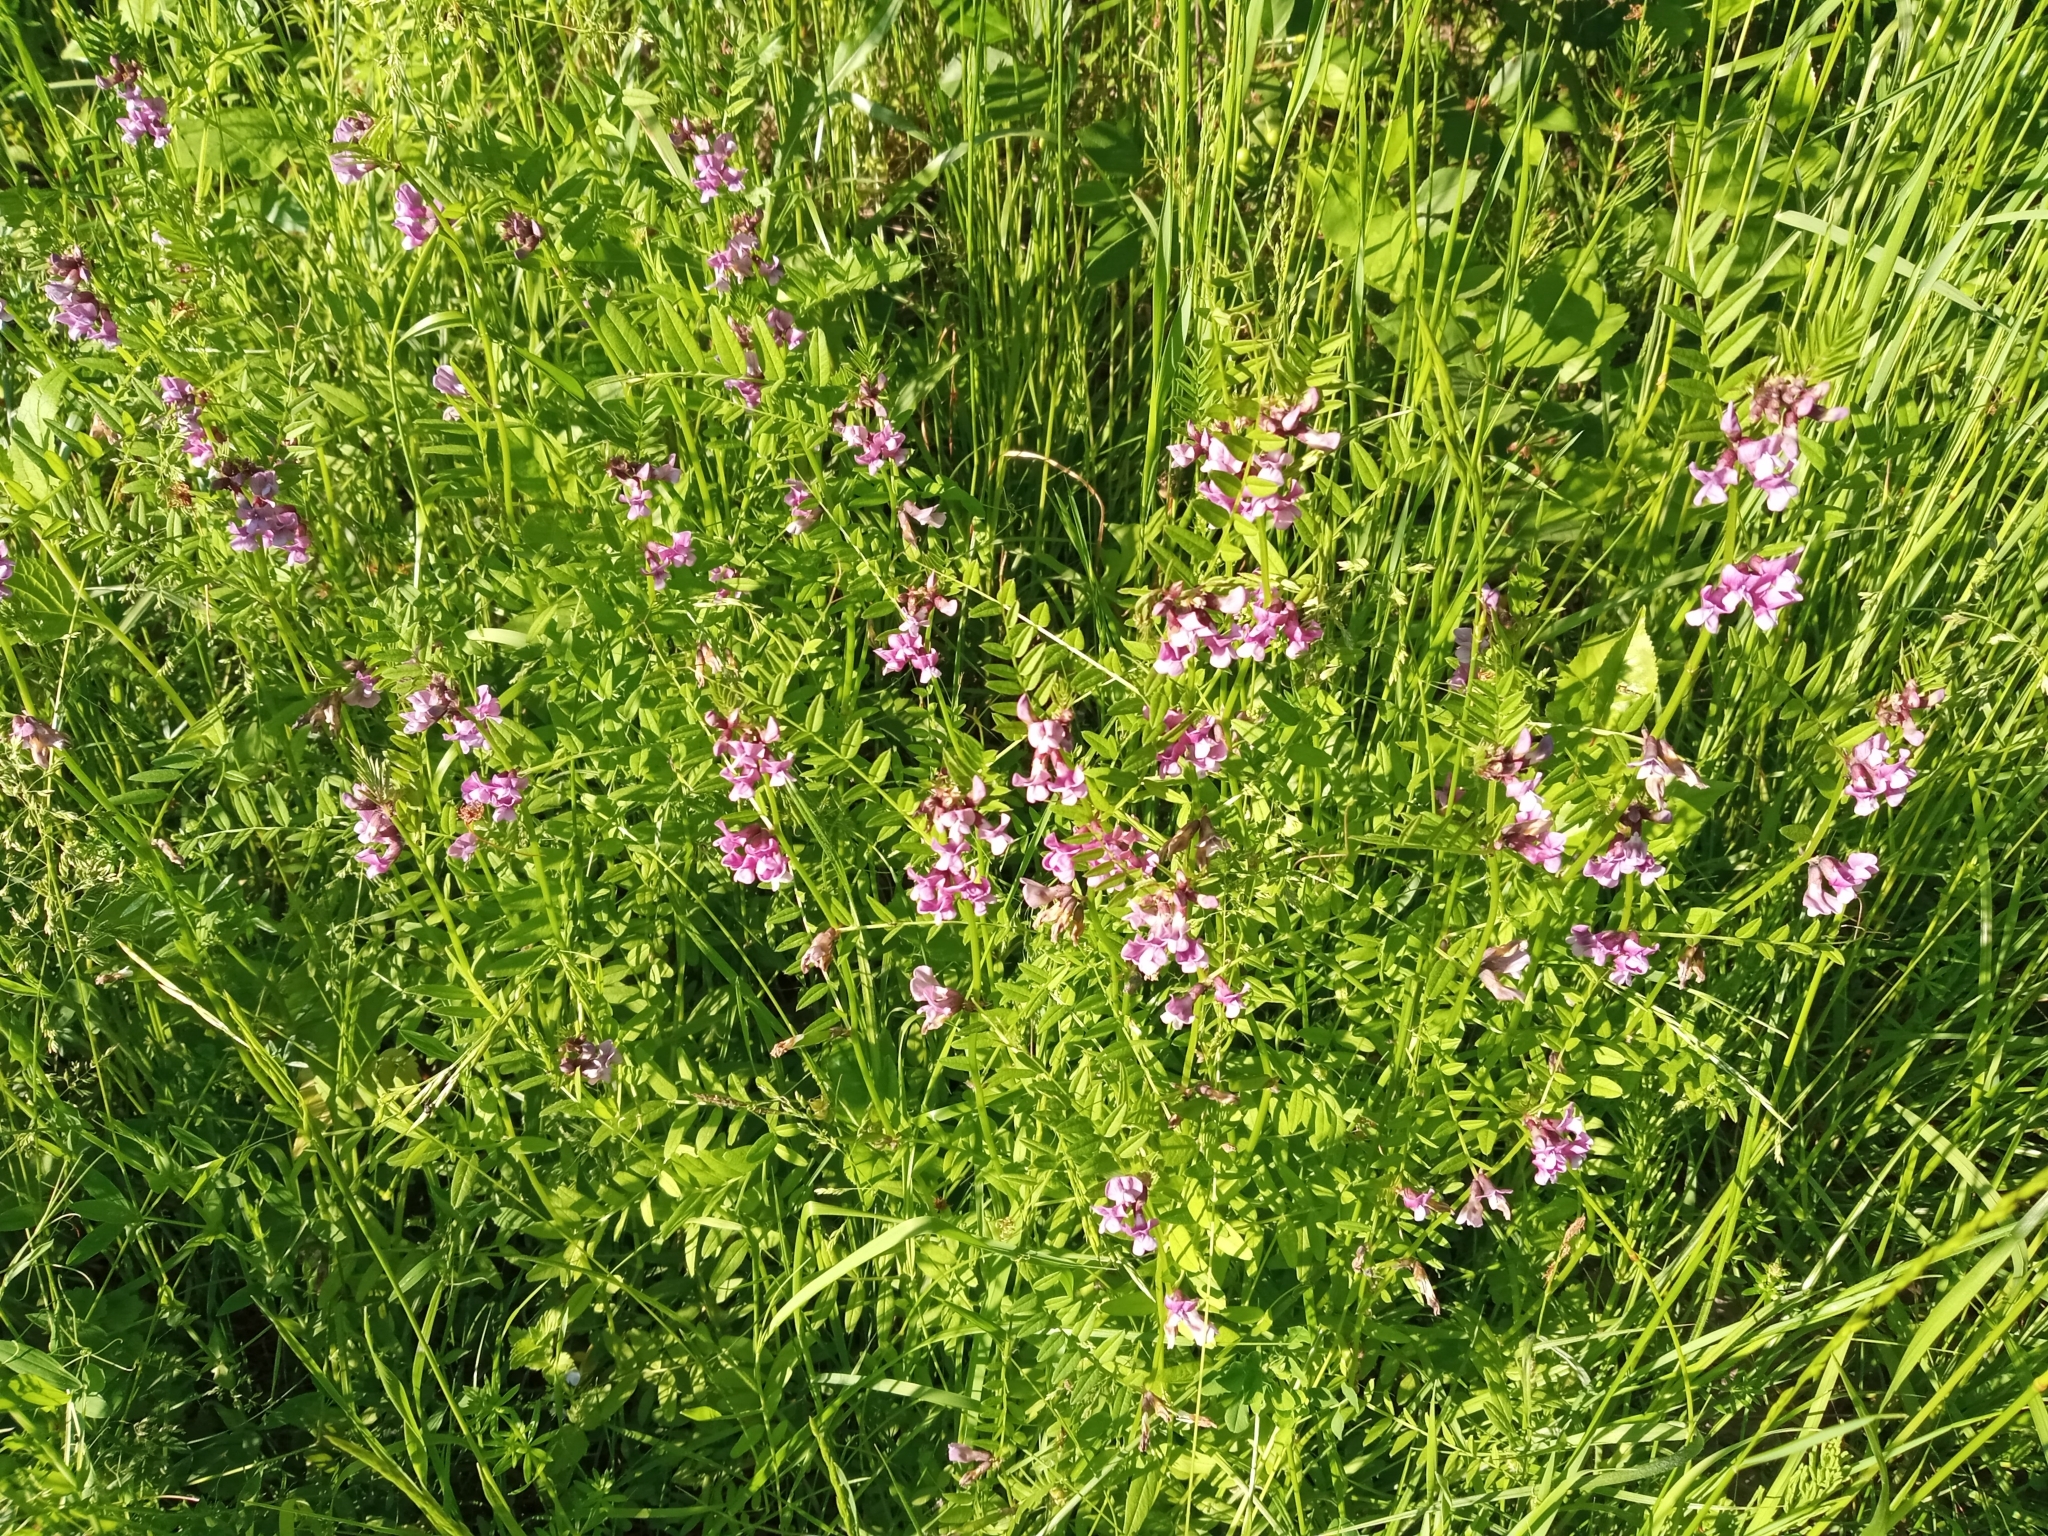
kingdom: Plantae
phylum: Tracheophyta
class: Magnoliopsida
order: Fabales
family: Fabaceae
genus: Vicia
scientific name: Vicia sepium
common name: Bush vetch
